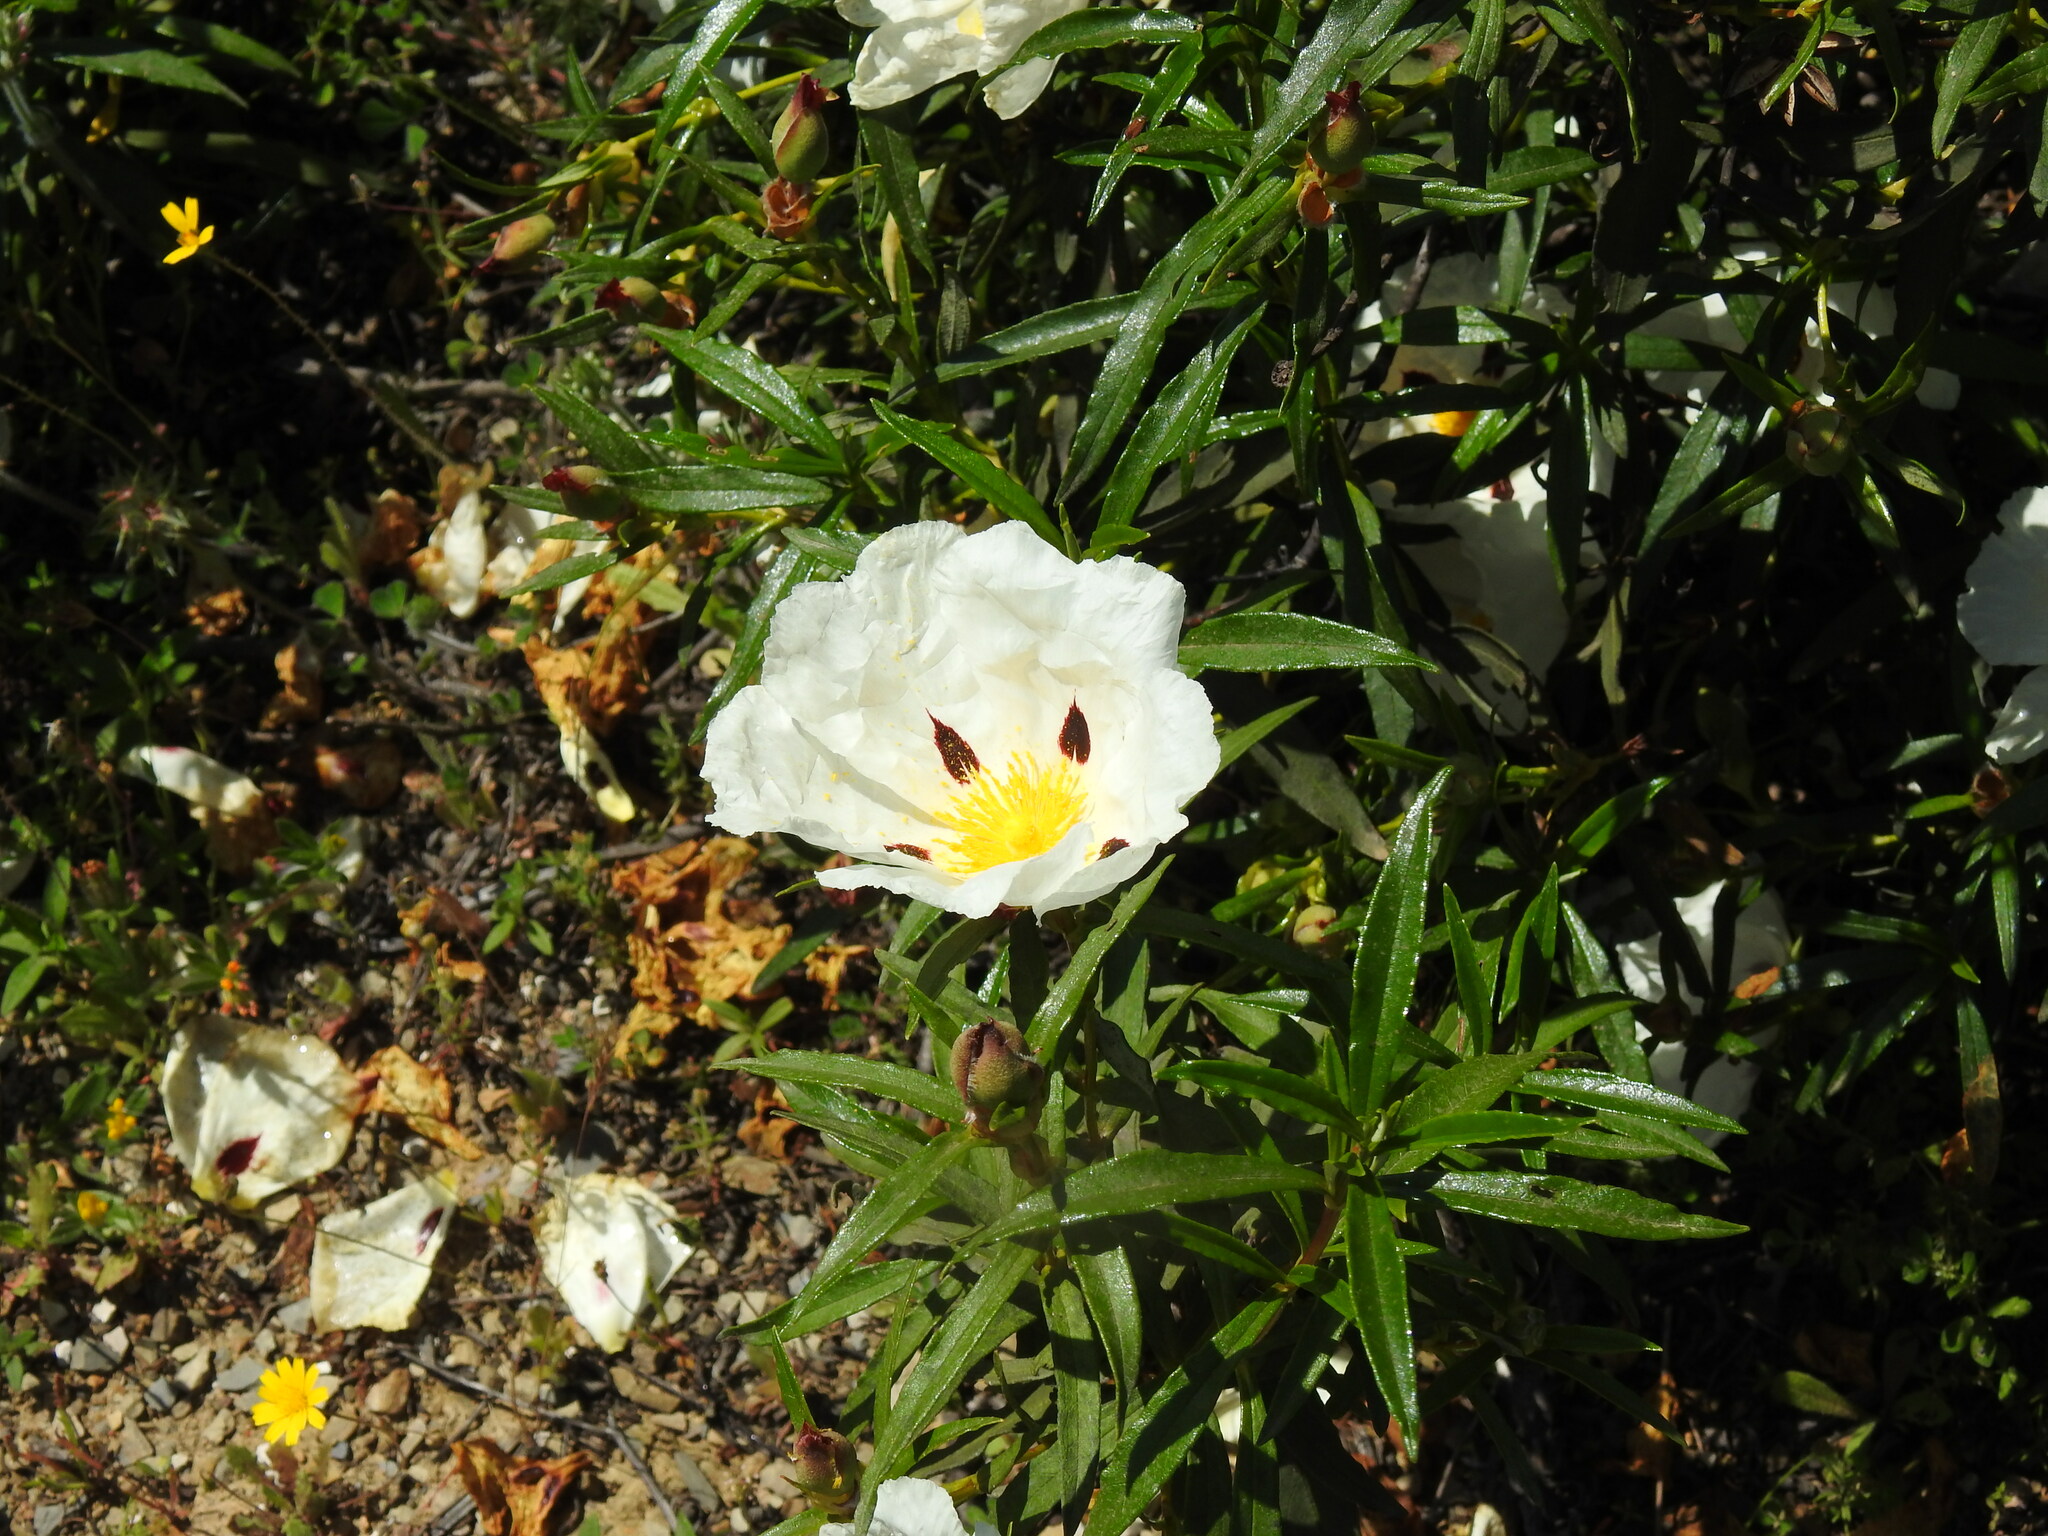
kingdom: Plantae
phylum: Tracheophyta
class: Magnoliopsida
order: Malvales
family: Cistaceae
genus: Cistus
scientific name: Cistus ladanifer
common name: Common gum cistus
